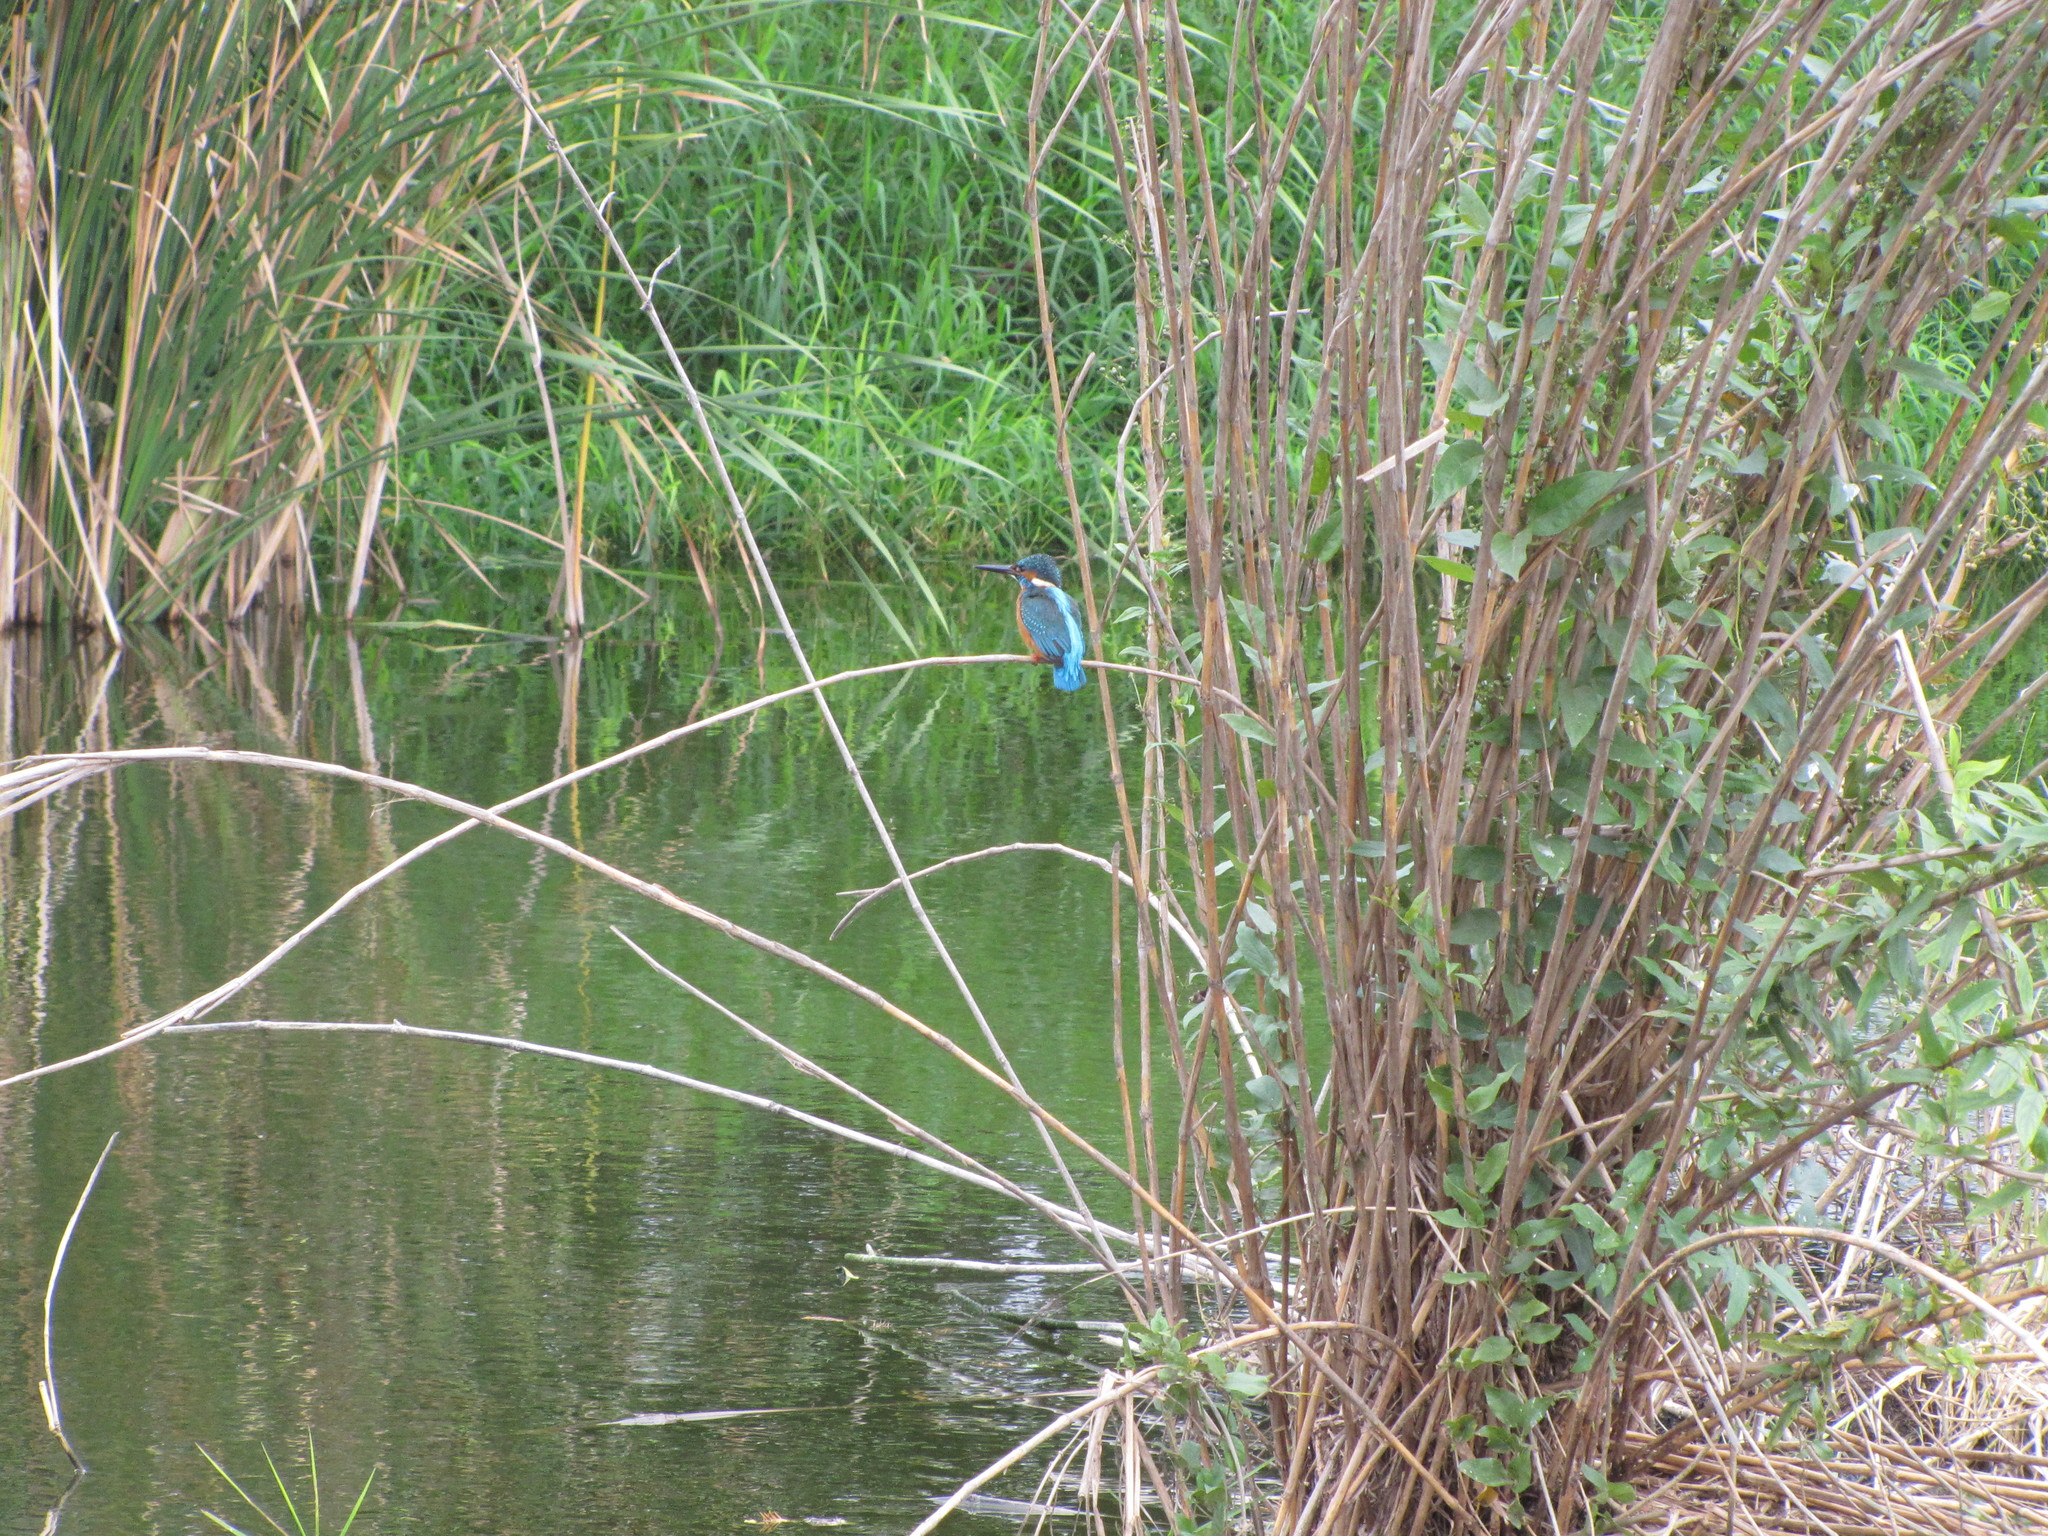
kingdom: Animalia
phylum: Chordata
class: Aves
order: Coraciiformes
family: Alcedinidae
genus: Alcedo
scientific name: Alcedo atthis
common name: Common kingfisher
